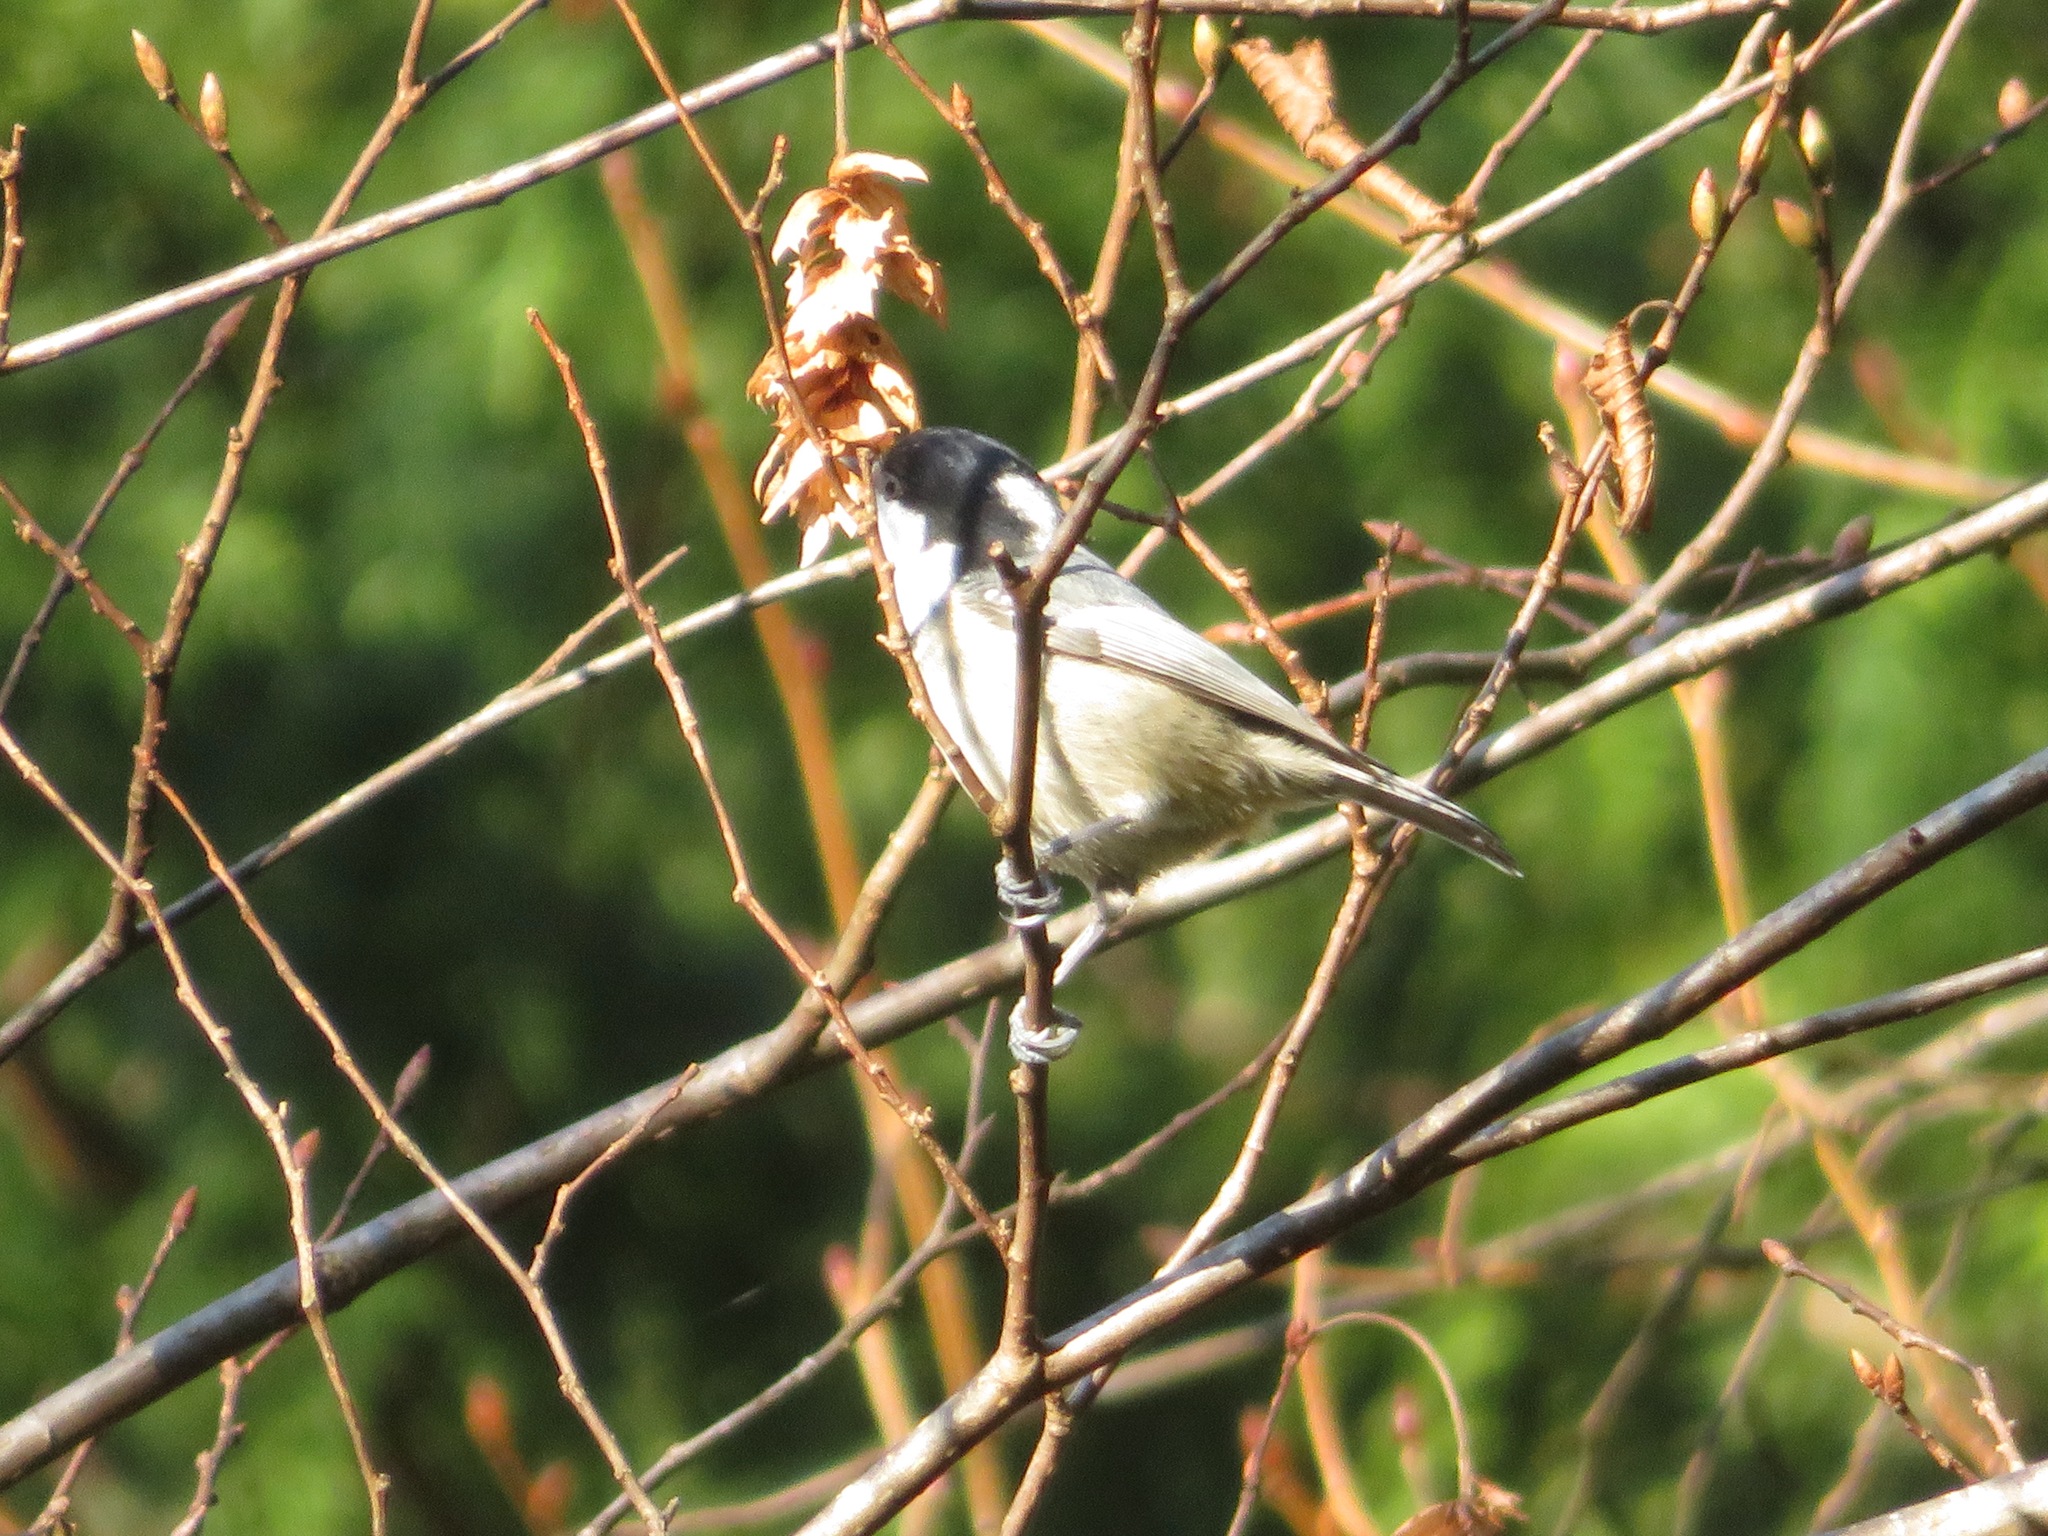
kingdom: Animalia
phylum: Chordata
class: Aves
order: Passeriformes
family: Paridae
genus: Periparus
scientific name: Periparus ater
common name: Coal tit
